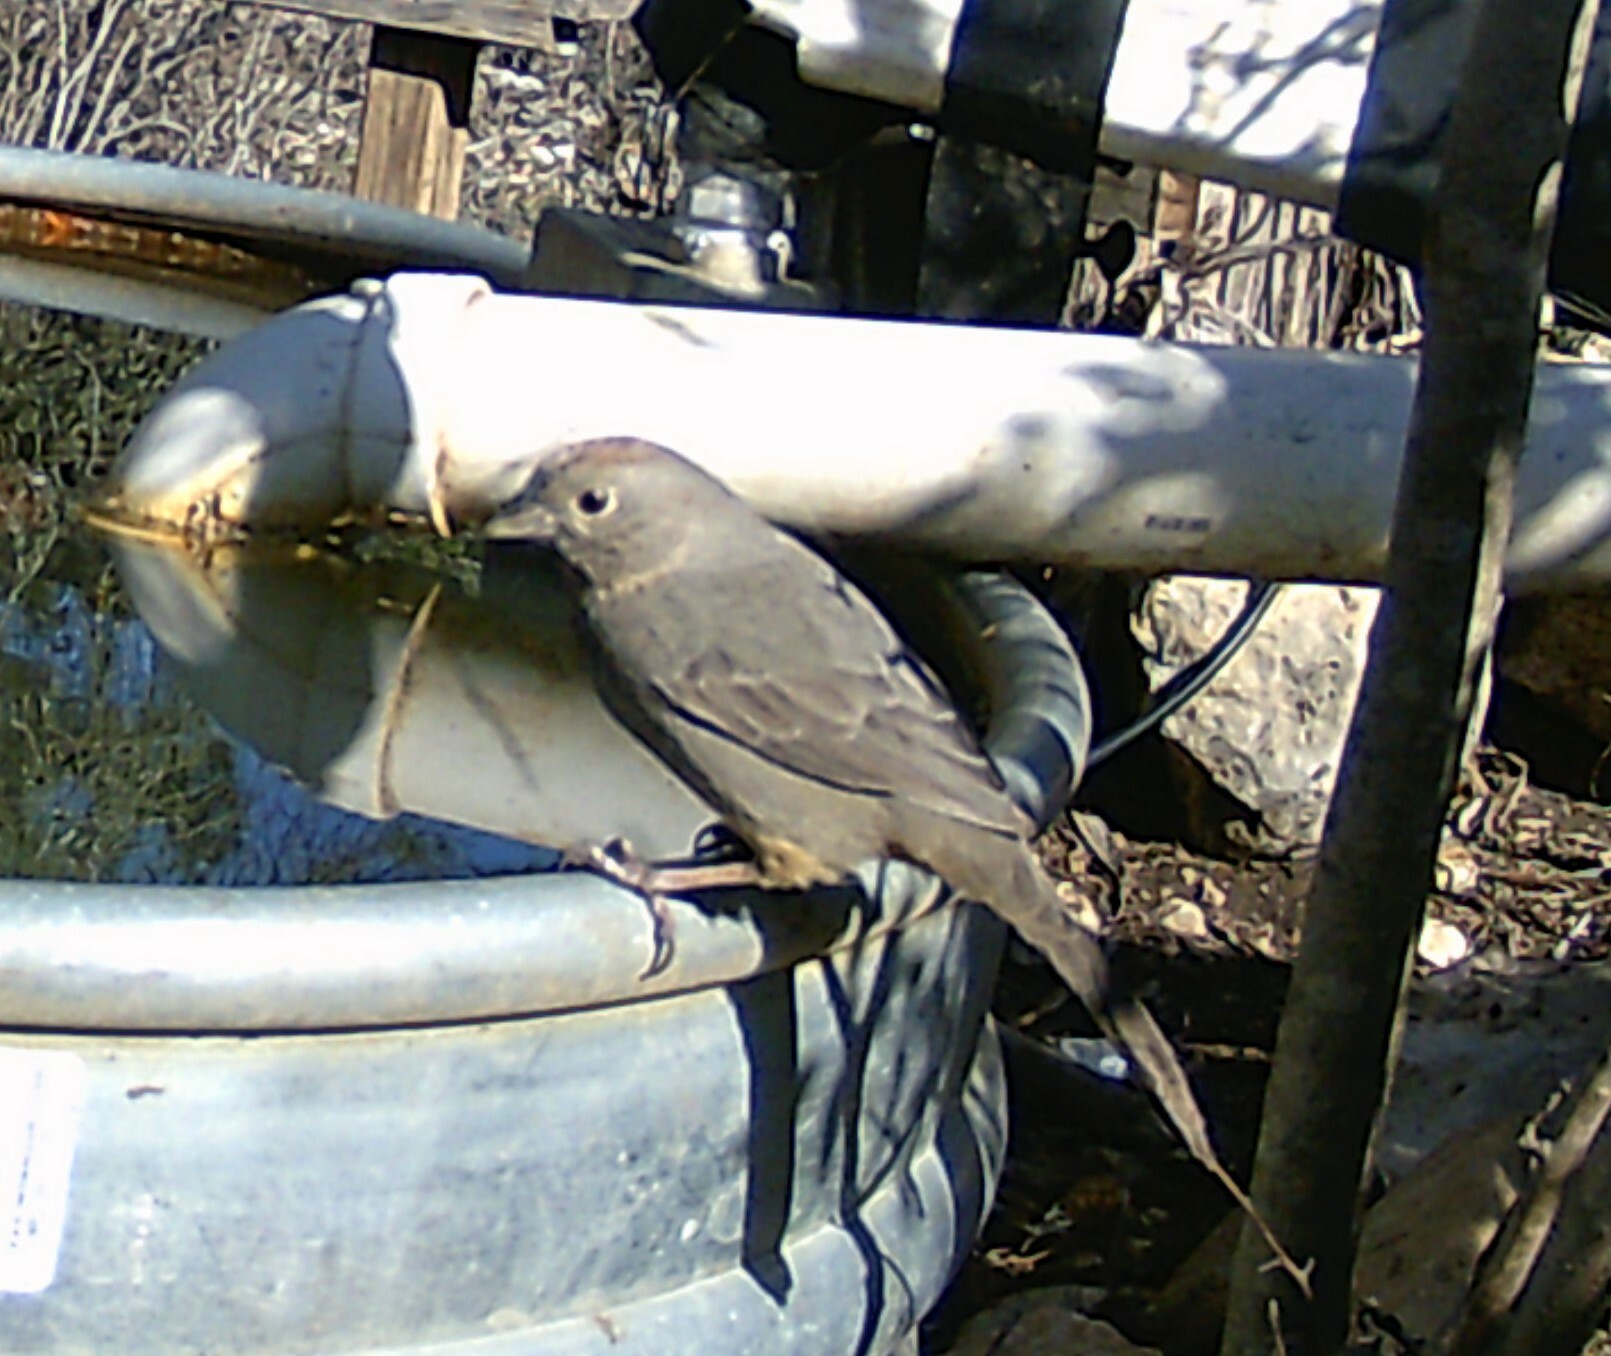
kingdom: Animalia
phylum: Chordata
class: Aves
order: Passeriformes
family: Passerellidae
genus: Melozone
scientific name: Melozone fusca
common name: Canyon towhee
